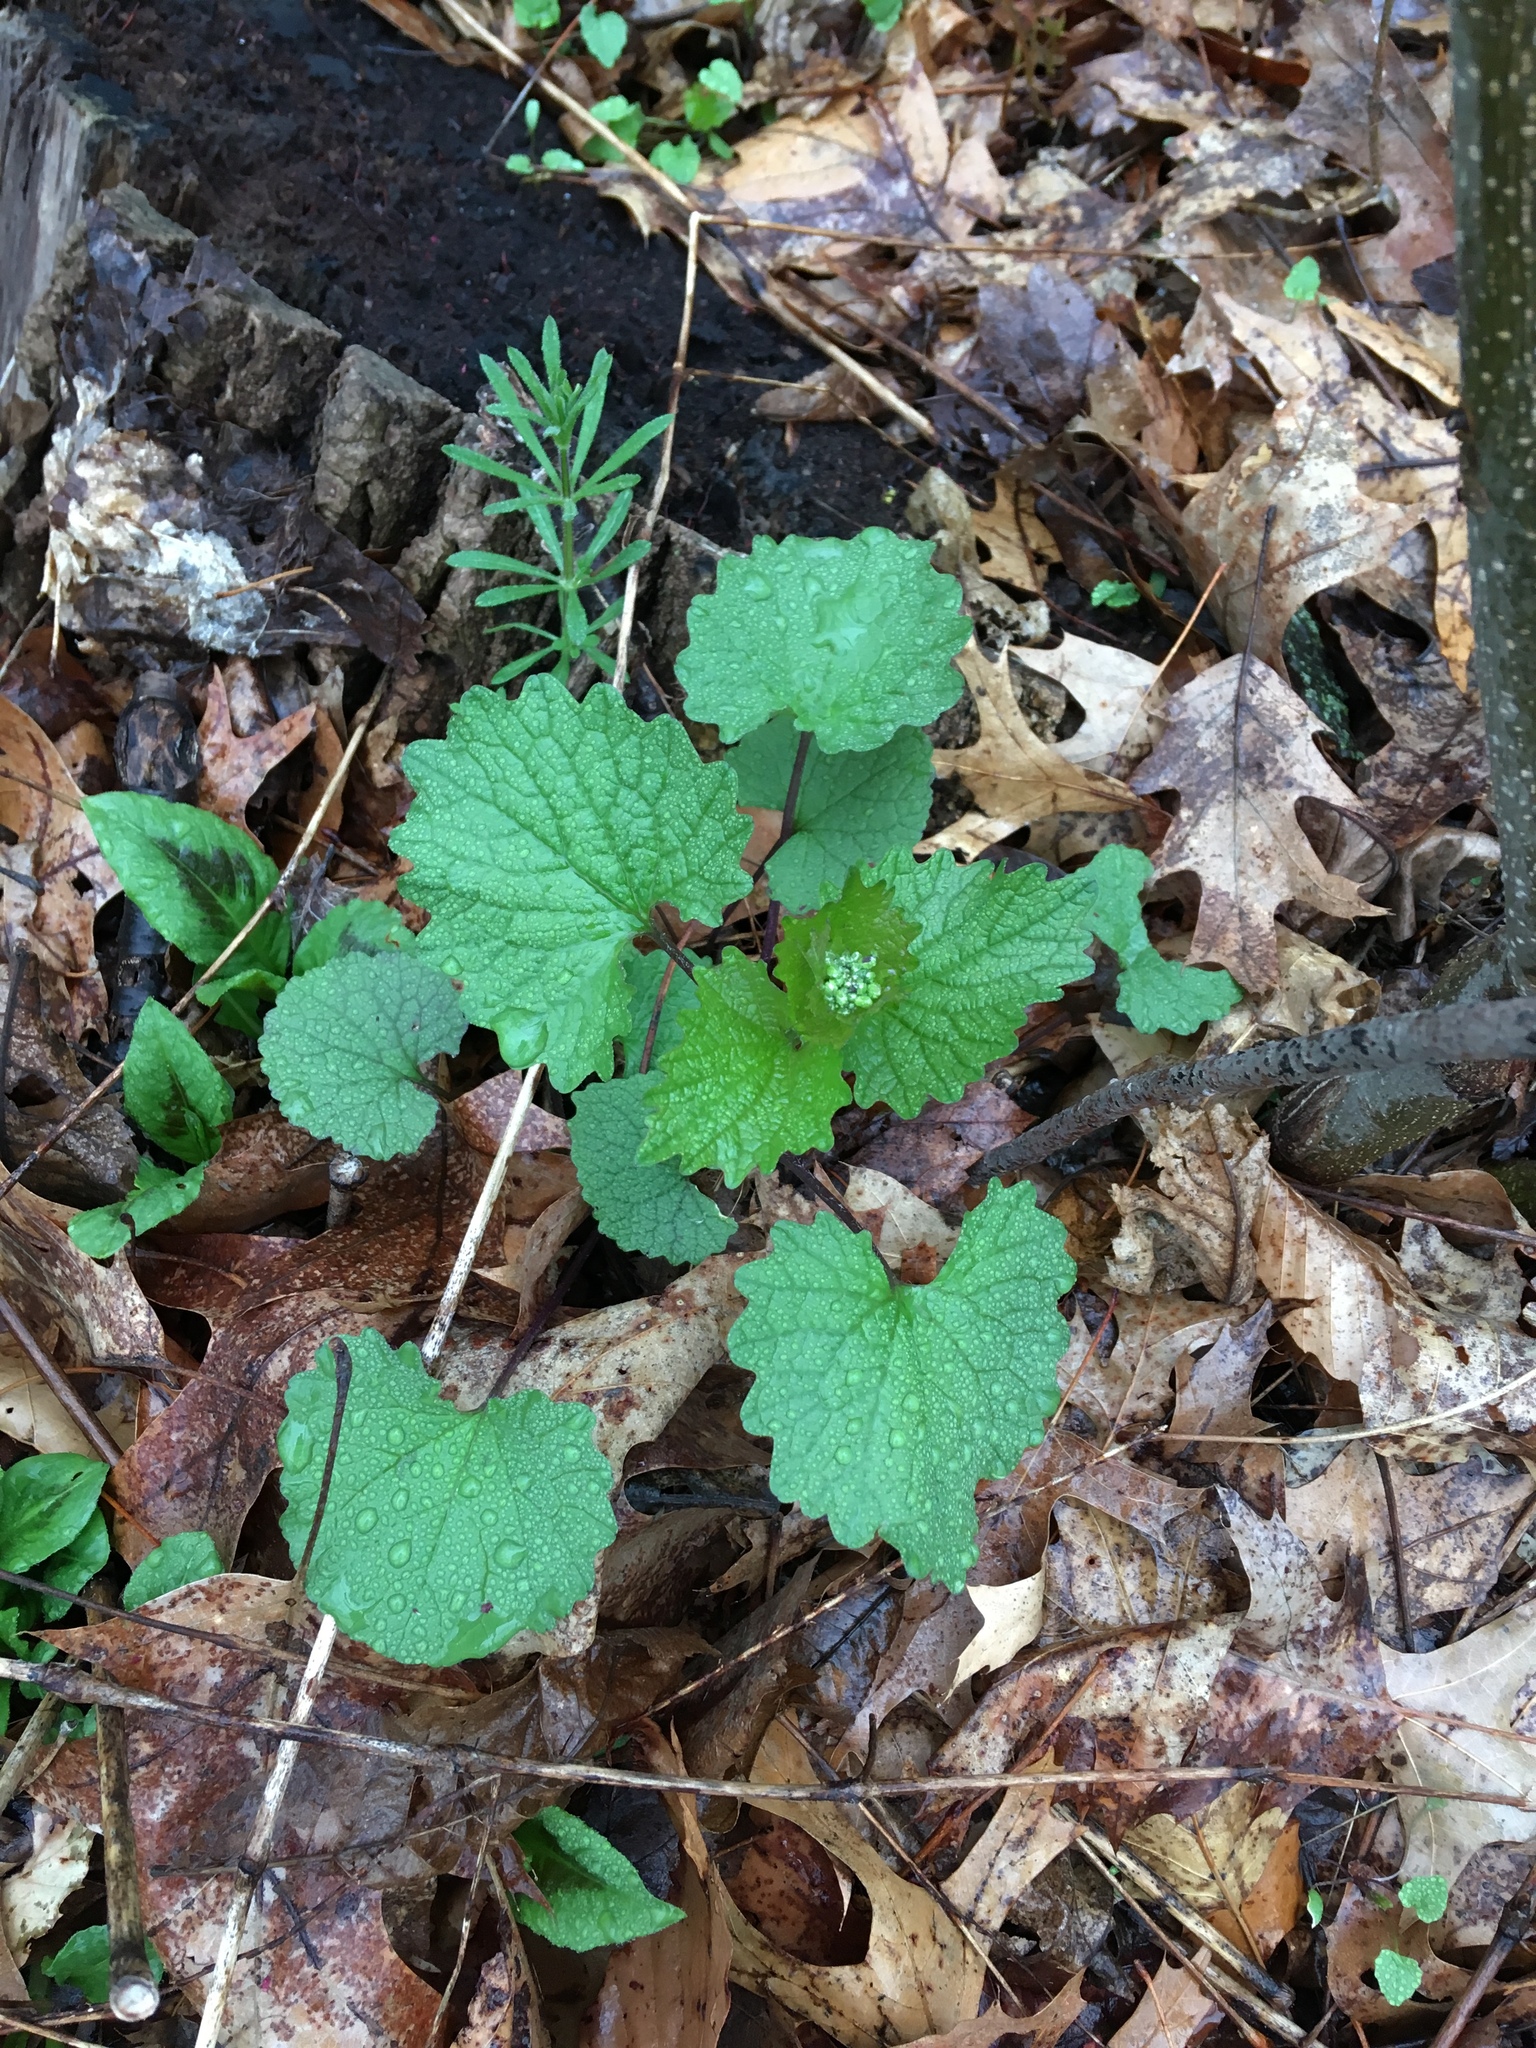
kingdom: Plantae
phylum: Tracheophyta
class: Magnoliopsida
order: Brassicales
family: Brassicaceae
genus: Alliaria
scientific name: Alliaria petiolata
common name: Garlic mustard
